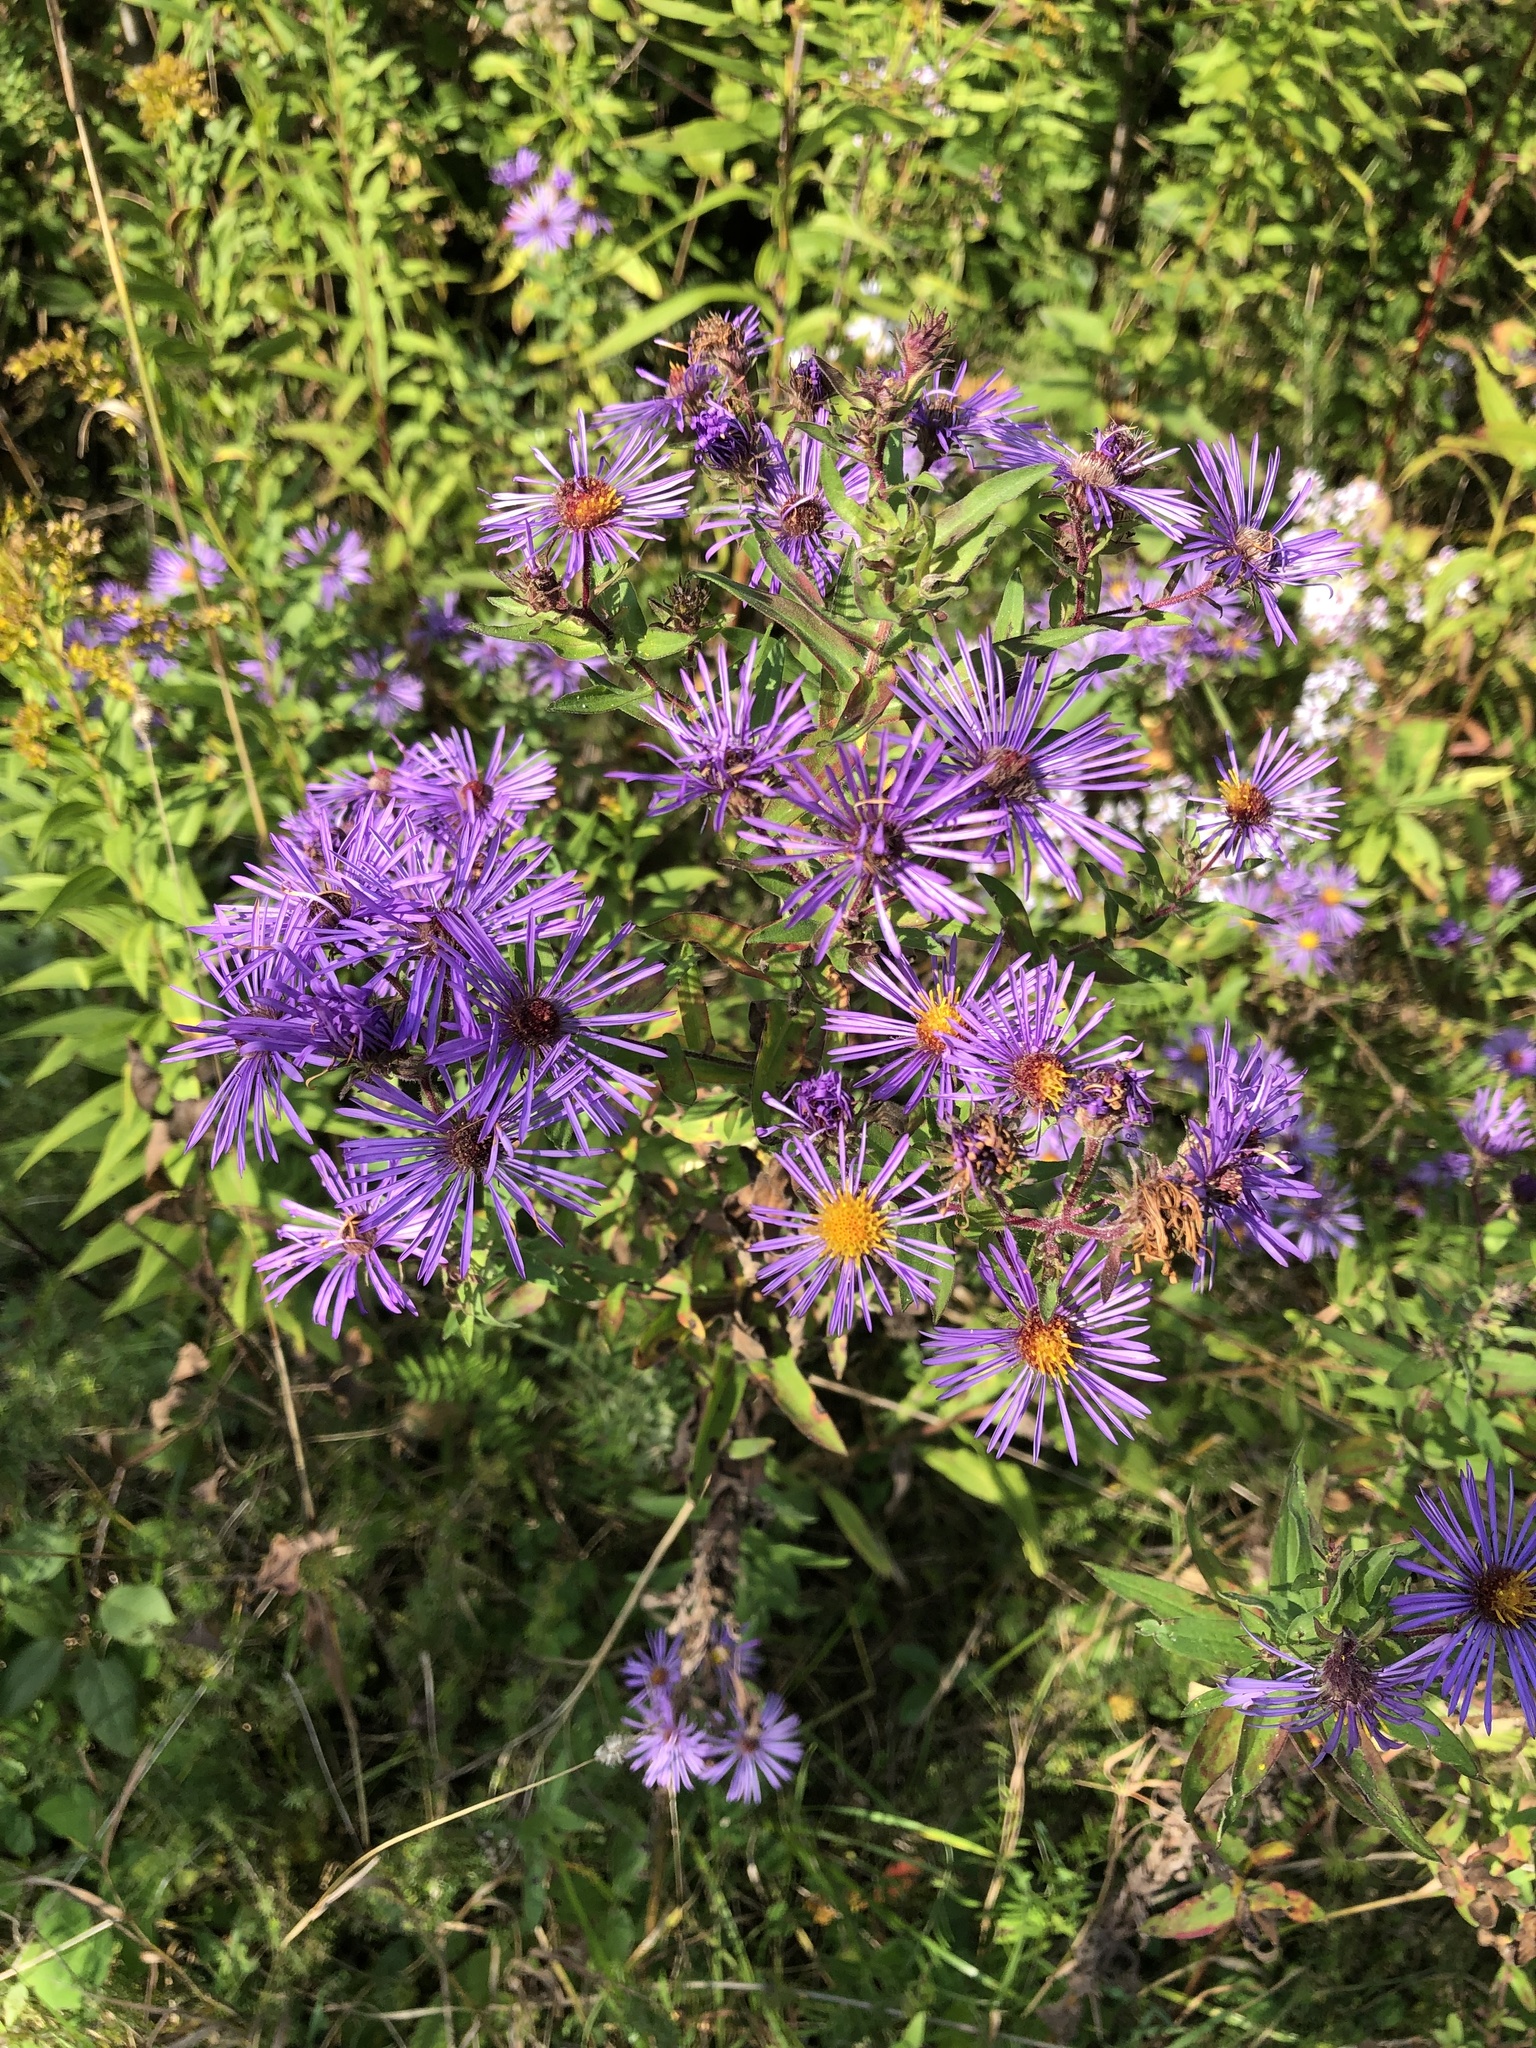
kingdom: Plantae
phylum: Tracheophyta
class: Magnoliopsida
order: Asterales
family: Asteraceae
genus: Symphyotrichum
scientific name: Symphyotrichum novae-angliae
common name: Michaelmas daisy
